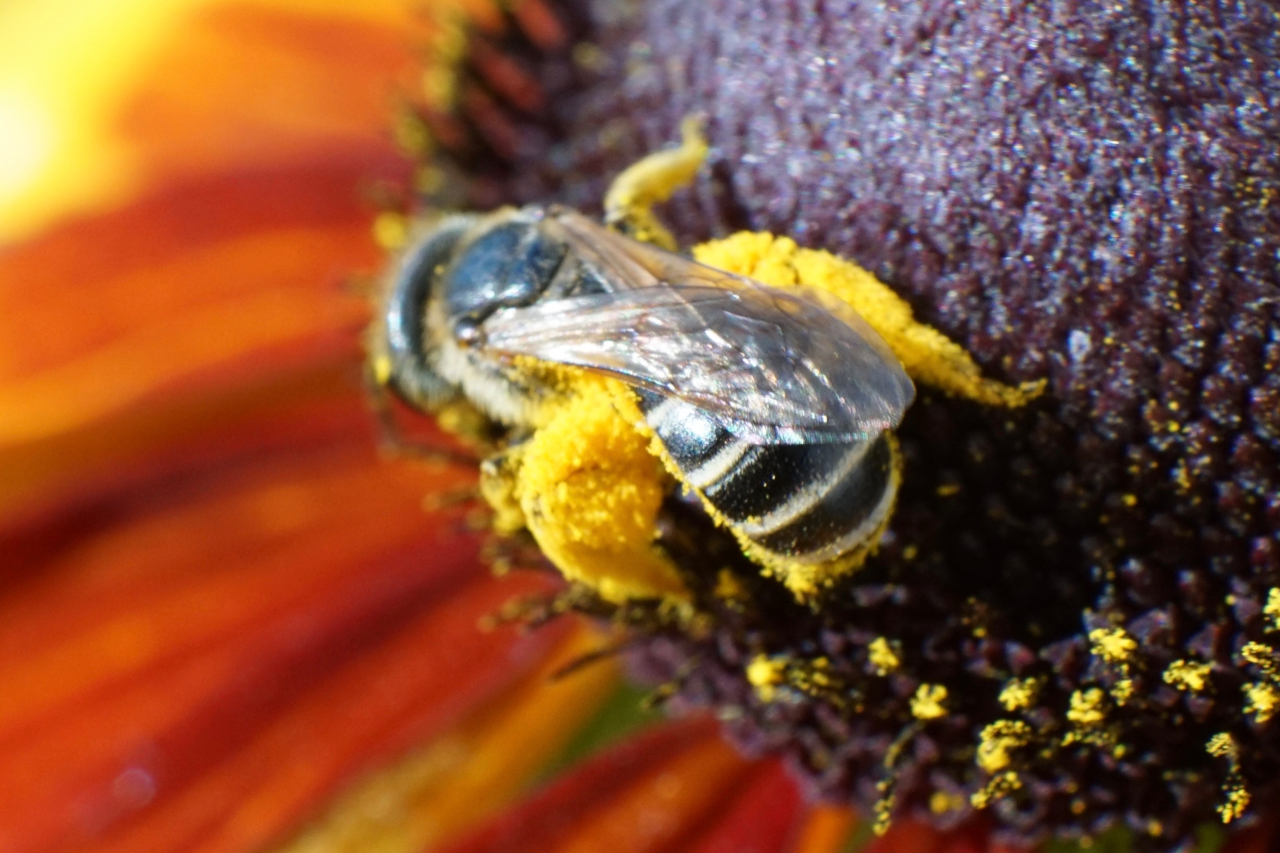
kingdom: Animalia
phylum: Arthropoda
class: Insecta
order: Hymenoptera
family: Halictidae
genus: Halictus
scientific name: Halictus ligatus
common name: Ligated furrow bee
